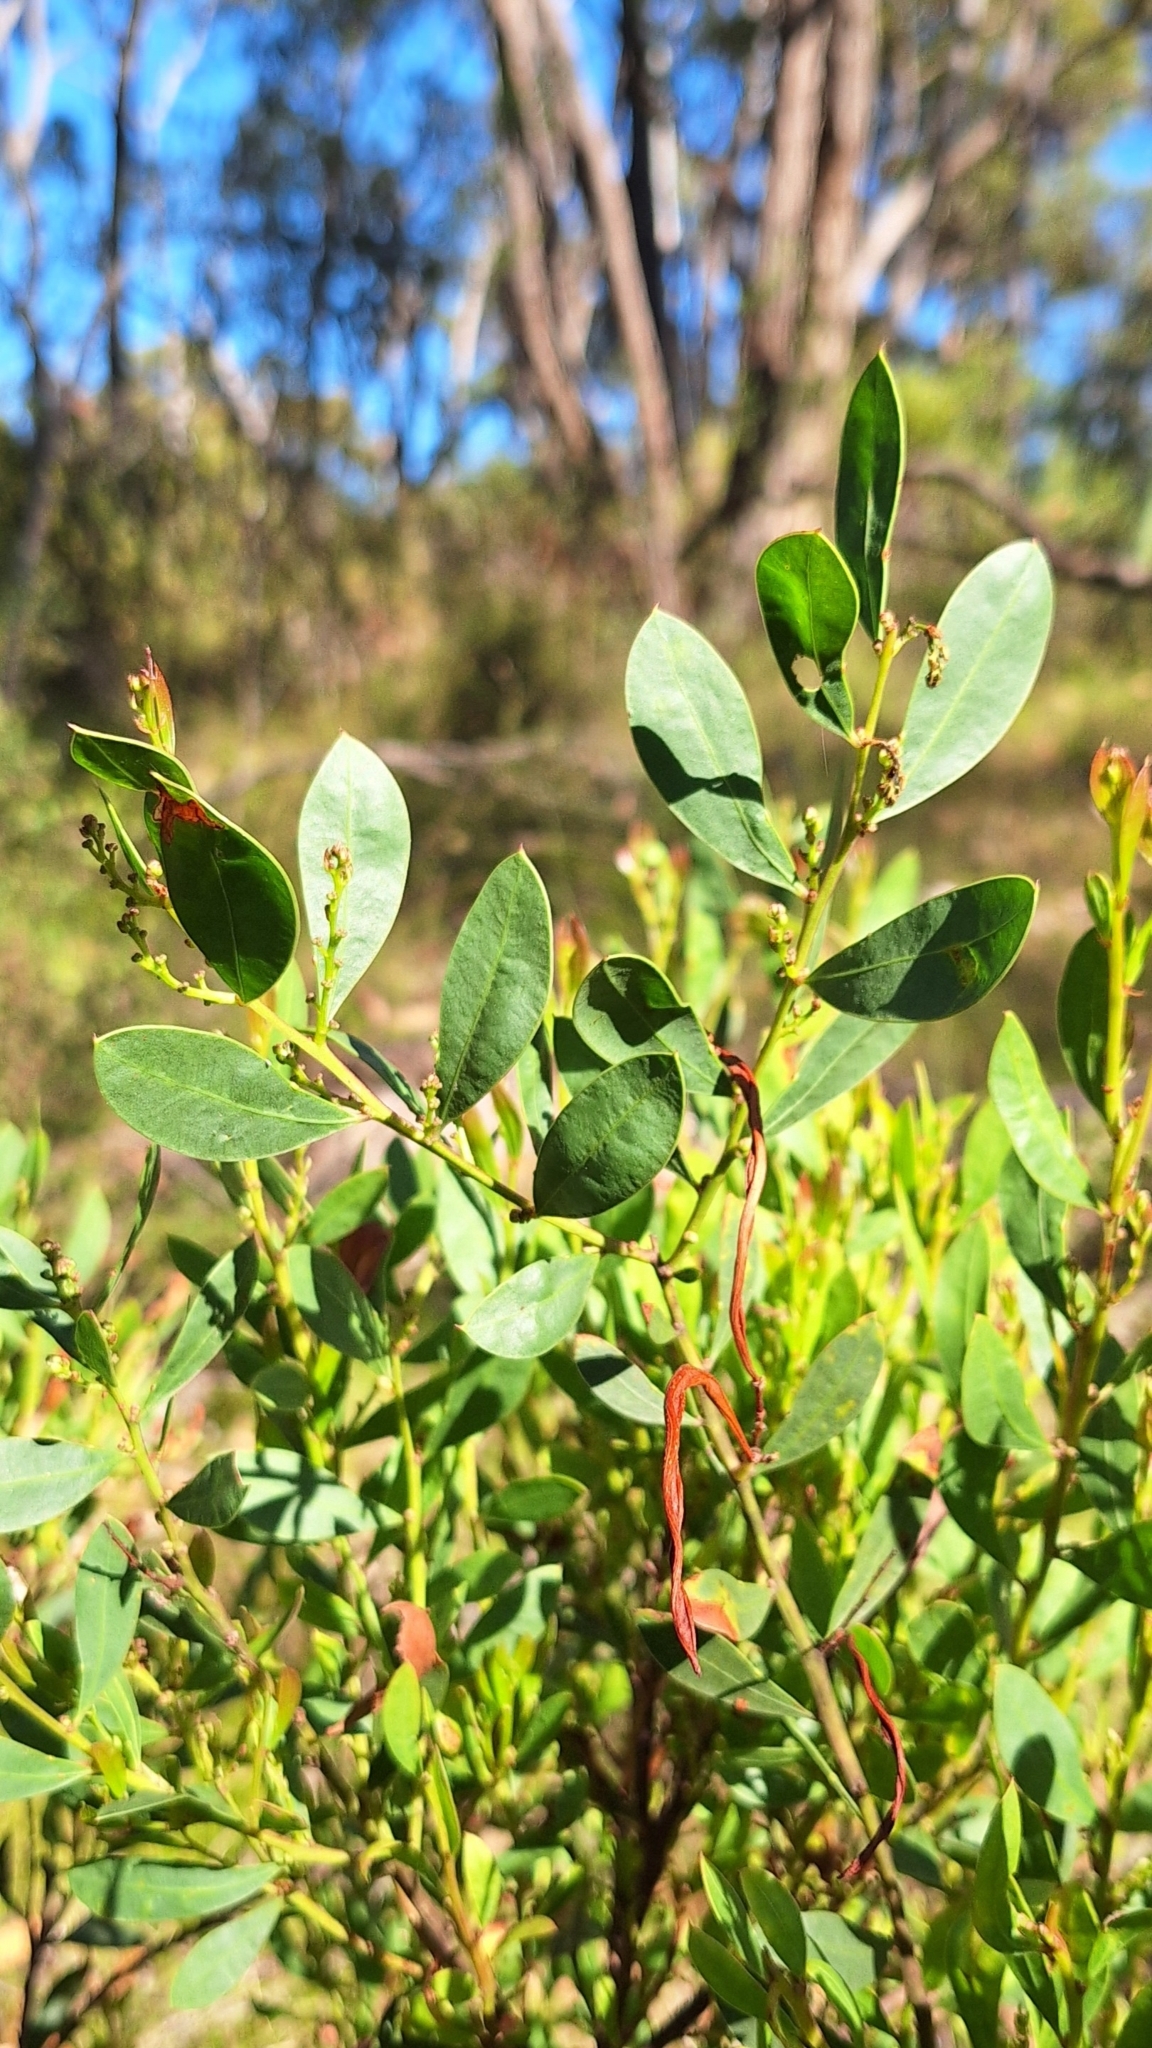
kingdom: Plantae
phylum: Tracheophyta
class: Magnoliopsida
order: Fabales
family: Fabaceae
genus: Acacia
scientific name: Acacia myrtifolia
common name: Myrtle wattle
